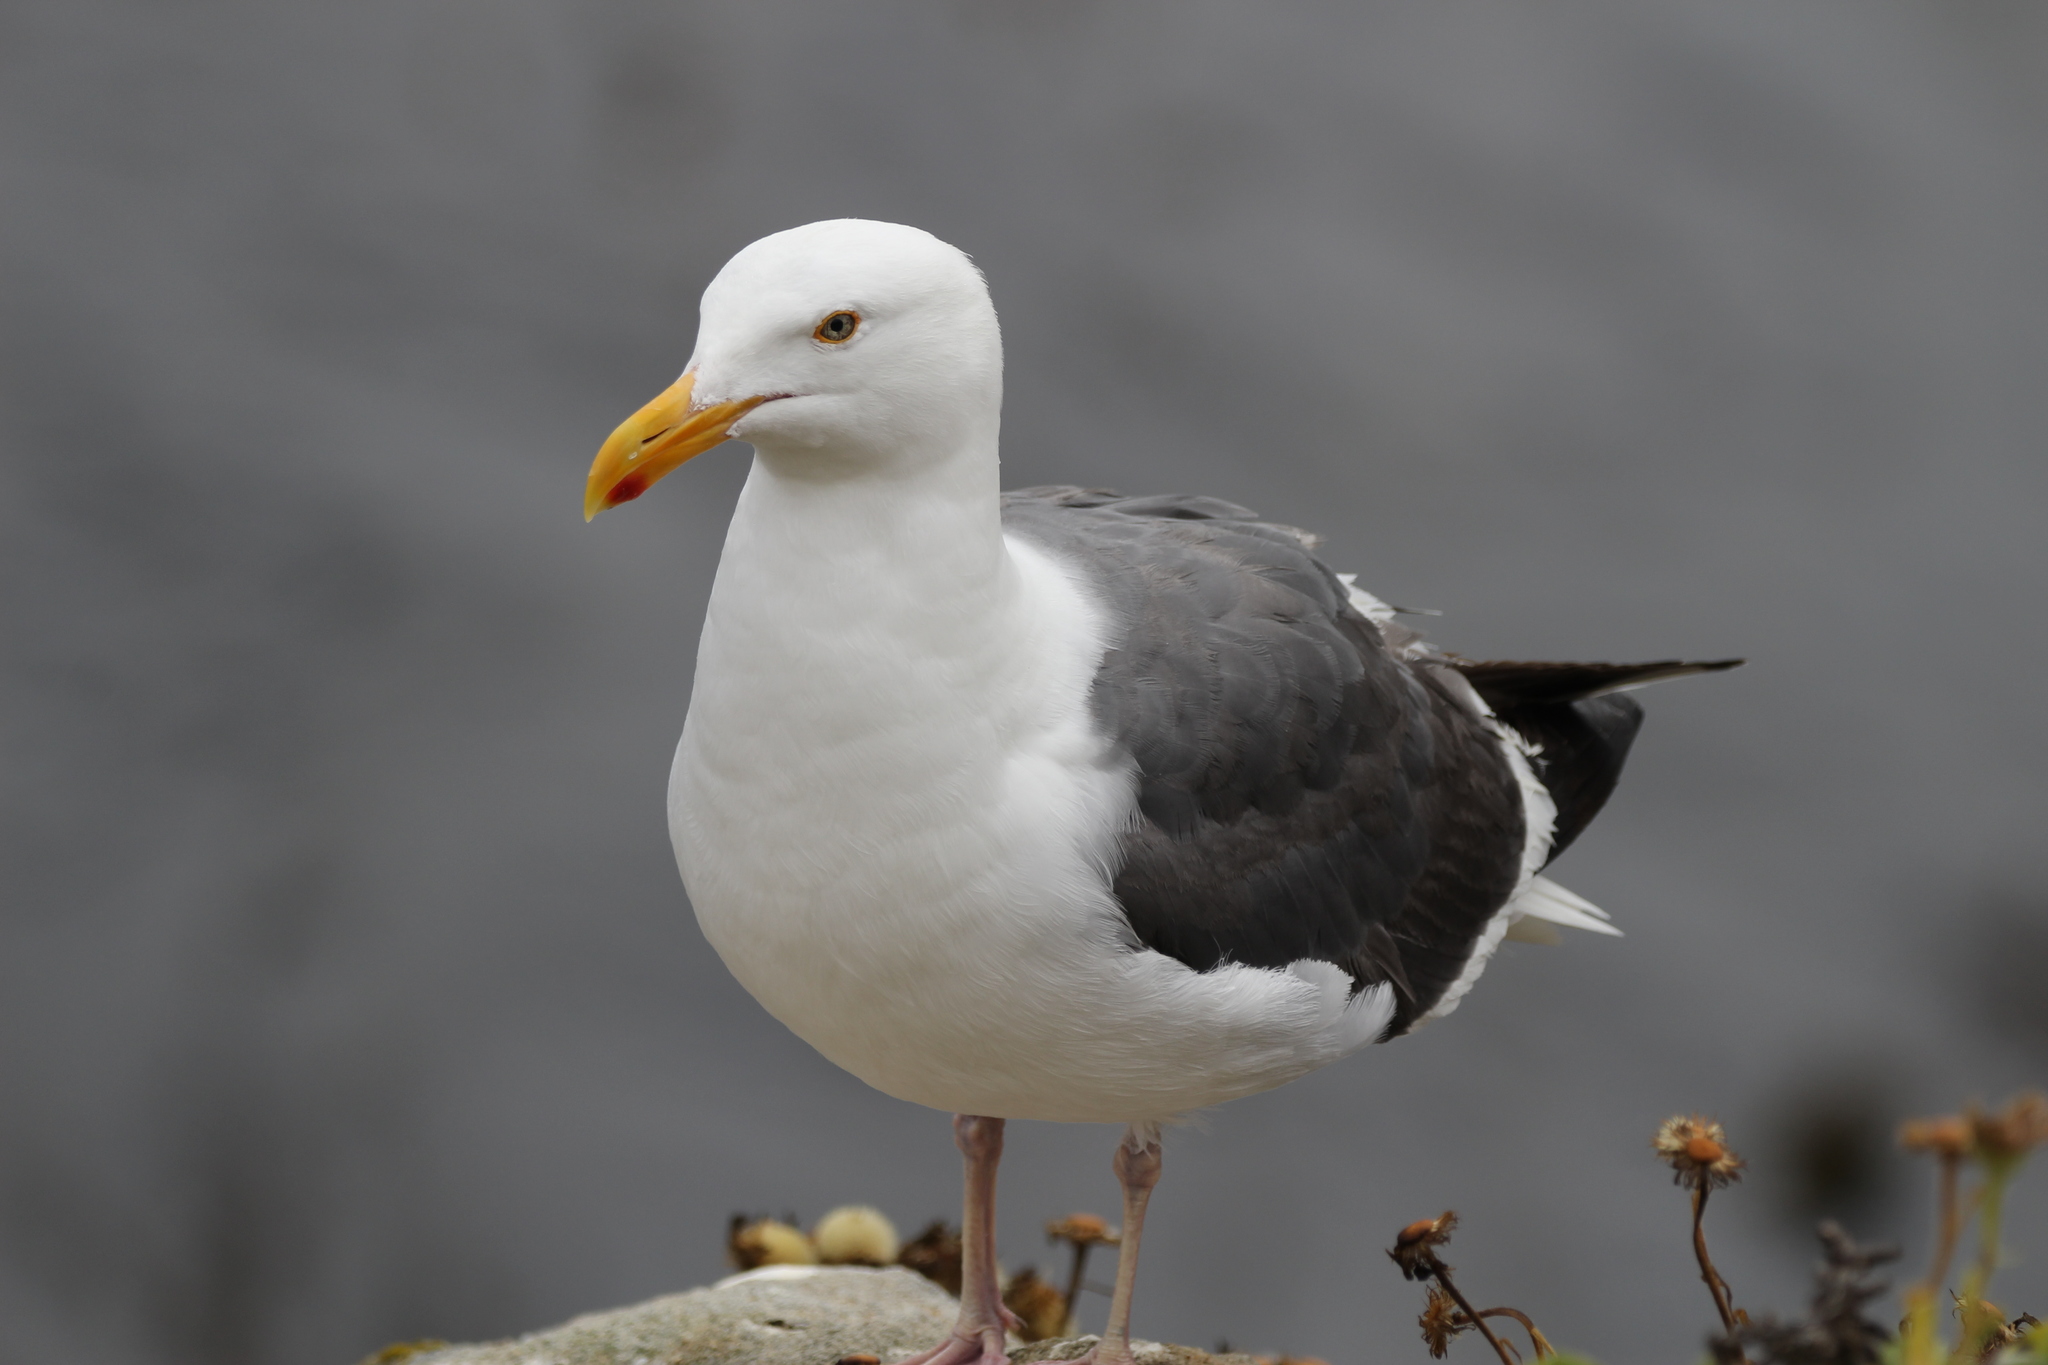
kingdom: Animalia
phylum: Chordata
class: Aves
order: Charadriiformes
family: Laridae
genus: Larus
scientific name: Larus occidentalis
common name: Western gull
